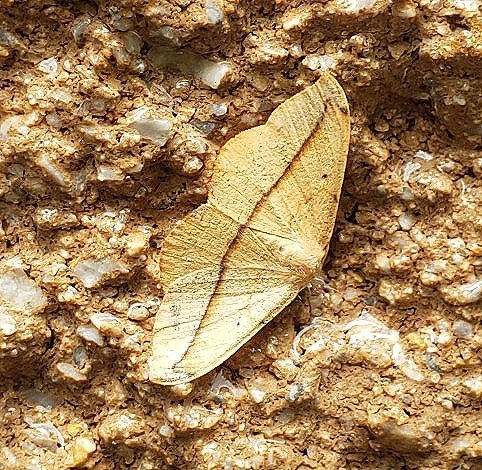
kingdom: Animalia
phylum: Arthropoda
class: Insecta
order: Lepidoptera
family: Geometridae
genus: Patalene
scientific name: Patalene olyzonaria
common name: Juniper geometer moth
